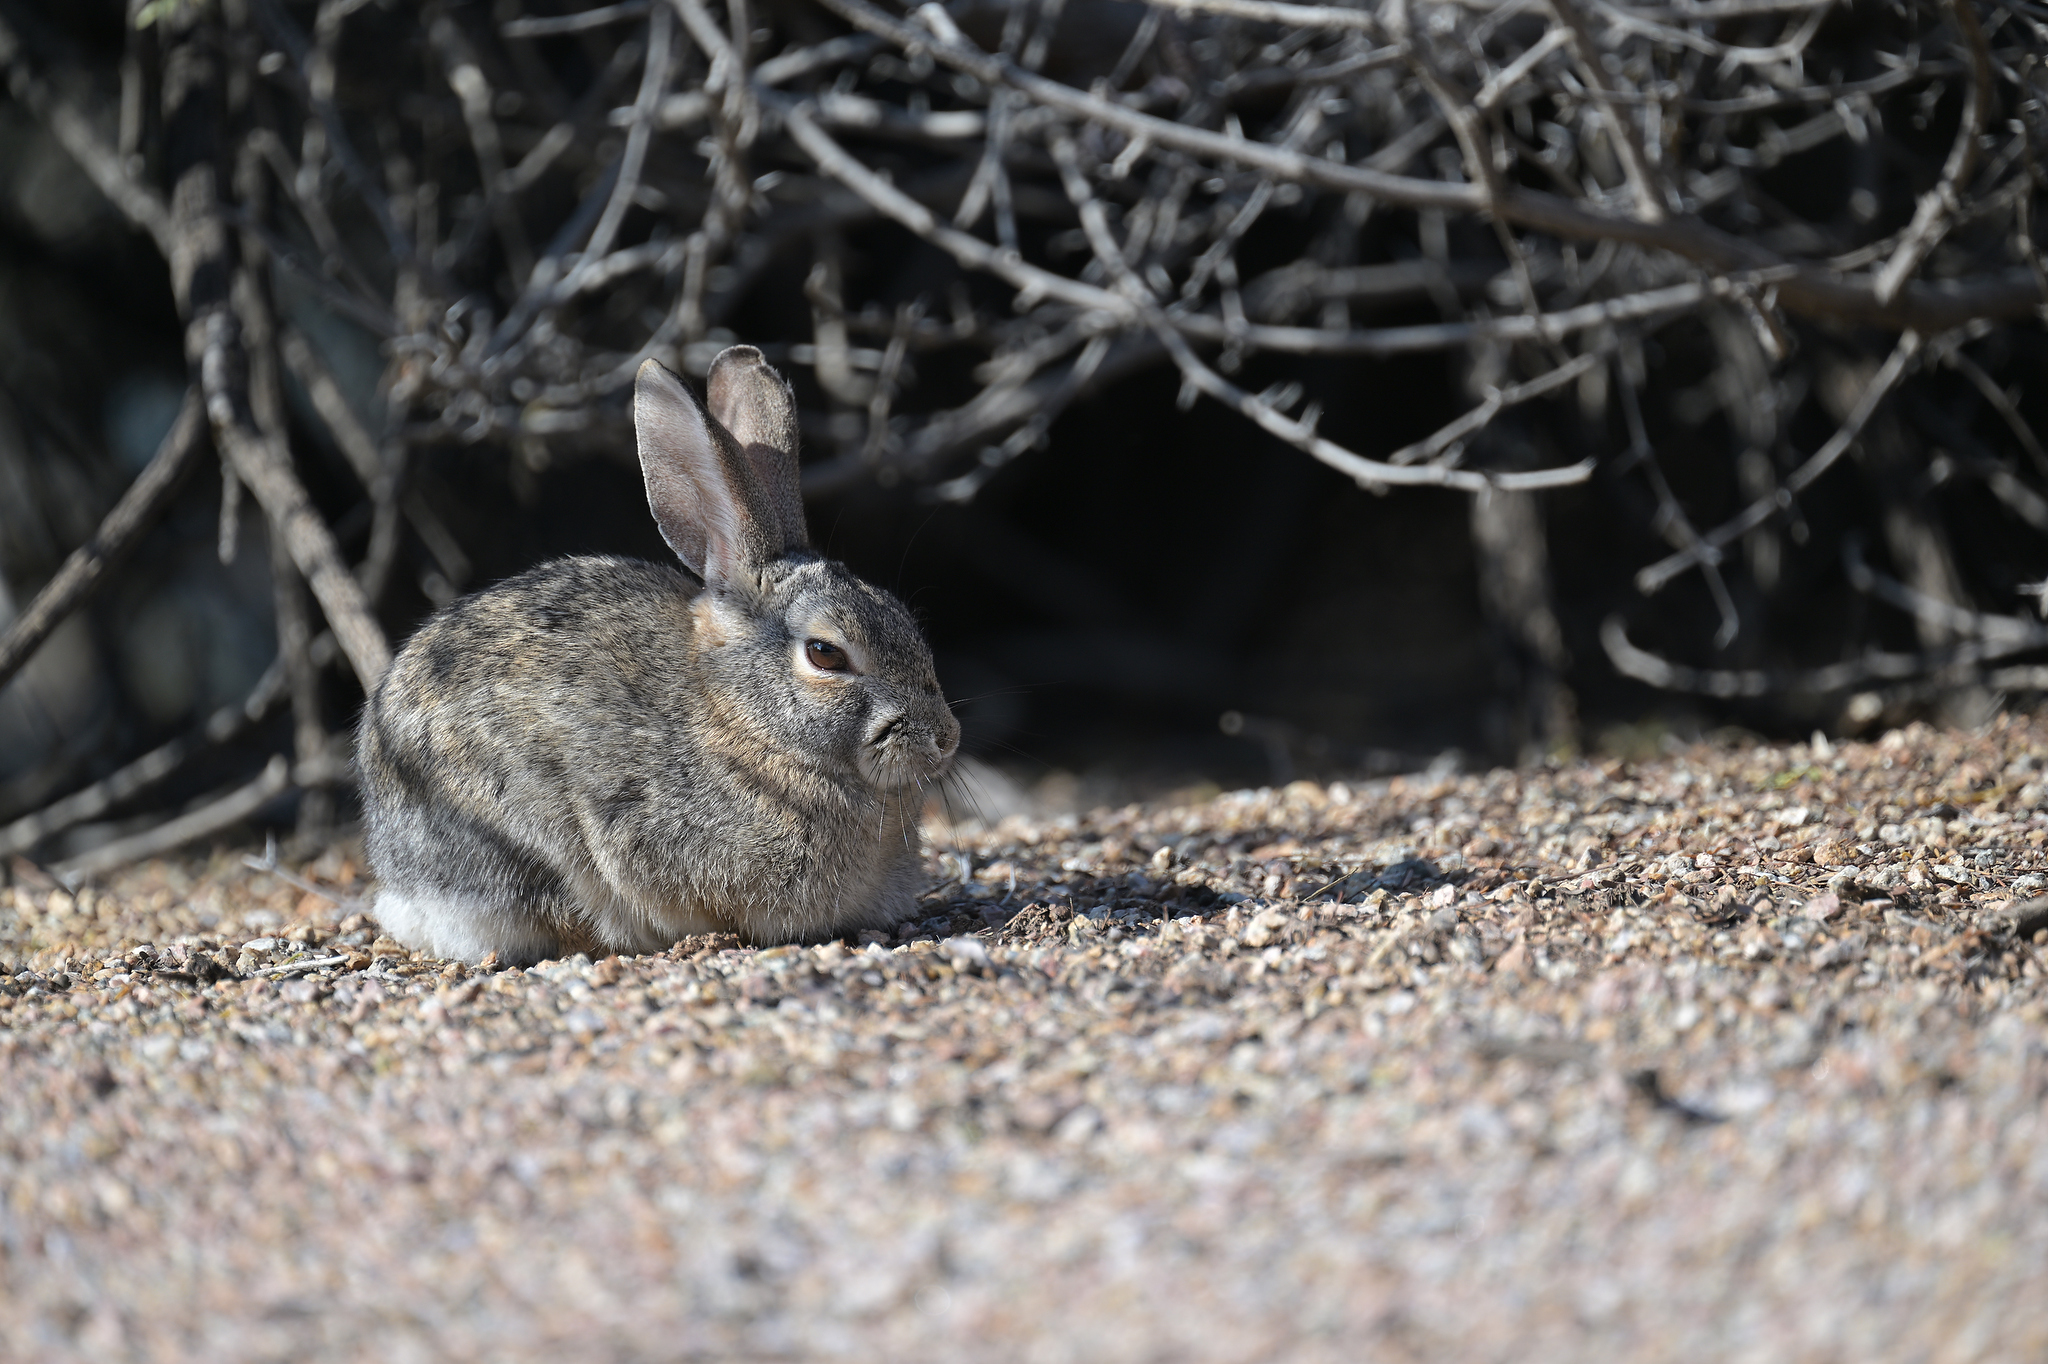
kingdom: Animalia
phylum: Chordata
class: Mammalia
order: Lagomorpha
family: Leporidae
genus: Sylvilagus
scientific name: Sylvilagus audubonii
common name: Desert cottontail
